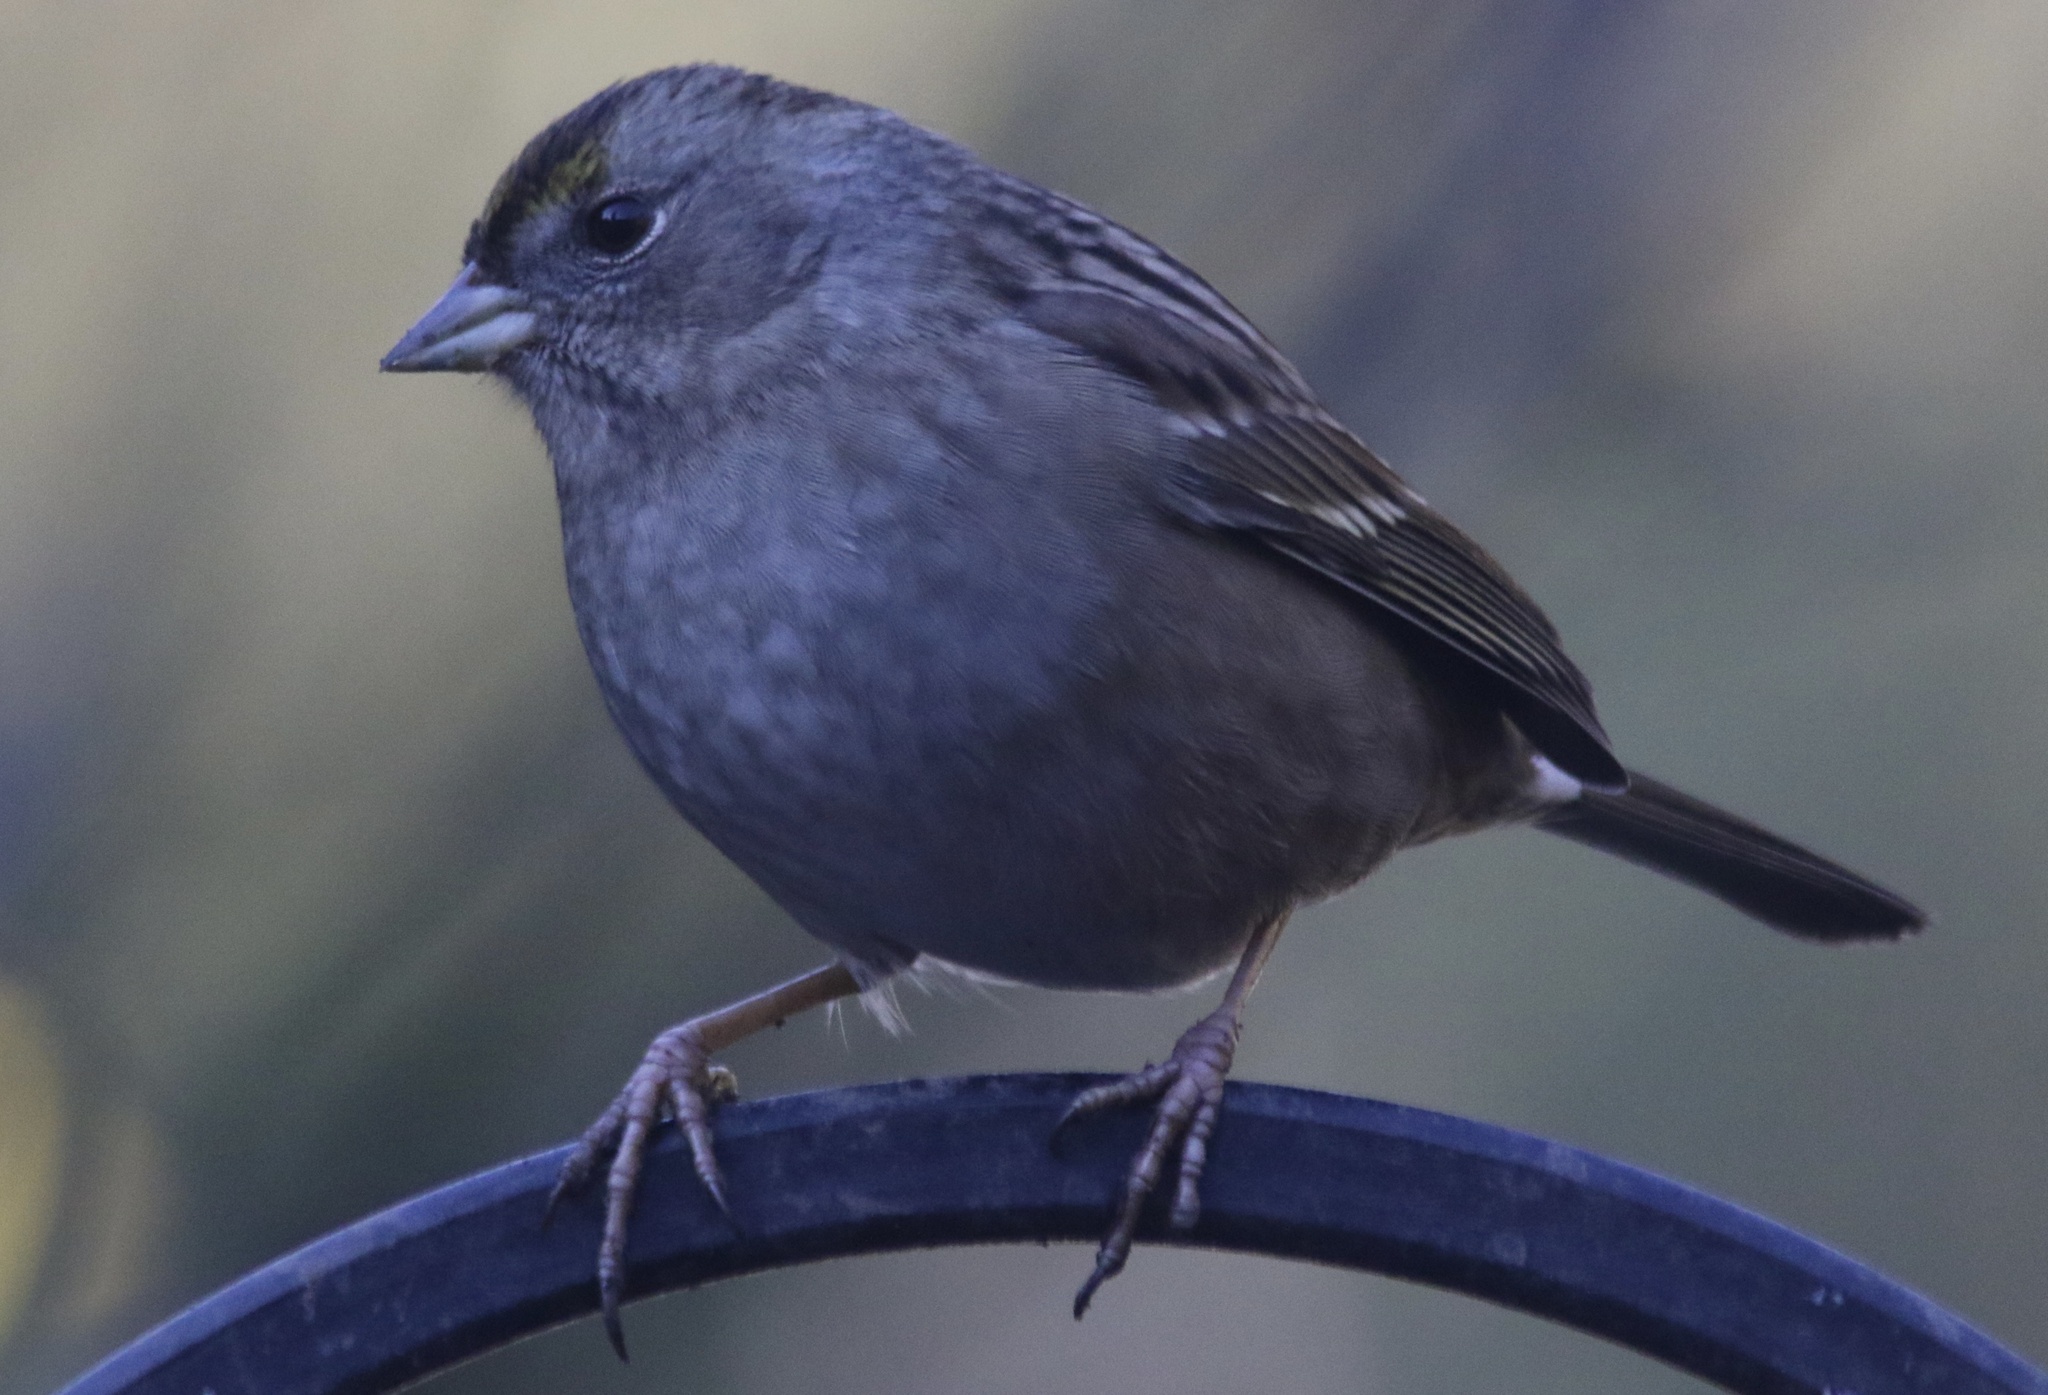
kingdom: Animalia
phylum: Chordata
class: Aves
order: Passeriformes
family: Passerellidae
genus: Zonotrichia
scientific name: Zonotrichia atricapilla
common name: Golden-crowned sparrow
